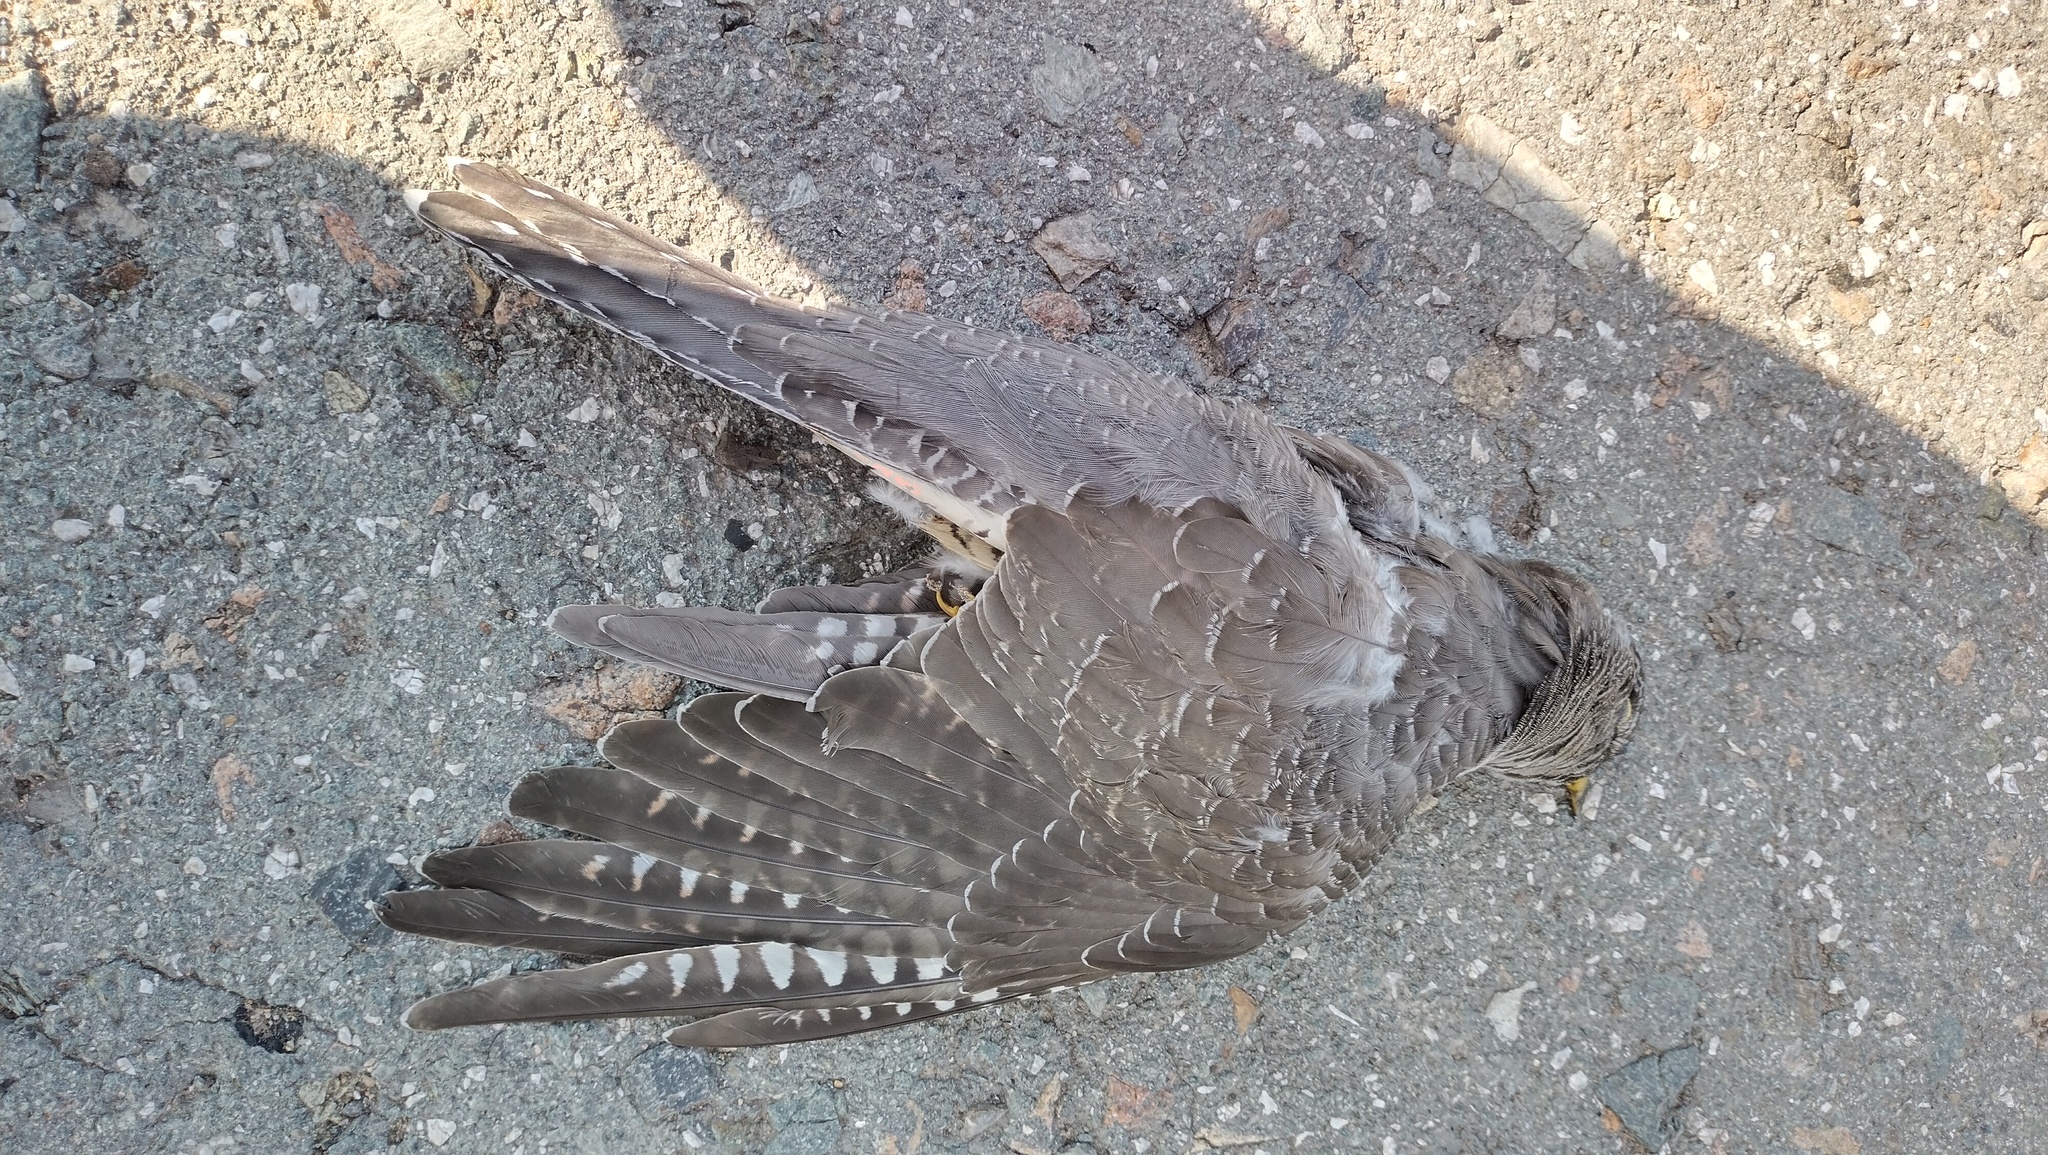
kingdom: Animalia
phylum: Chordata
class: Aves
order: Cuculiformes
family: Cuculidae
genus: Cuculus
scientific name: Cuculus canorus
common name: Common cuckoo
